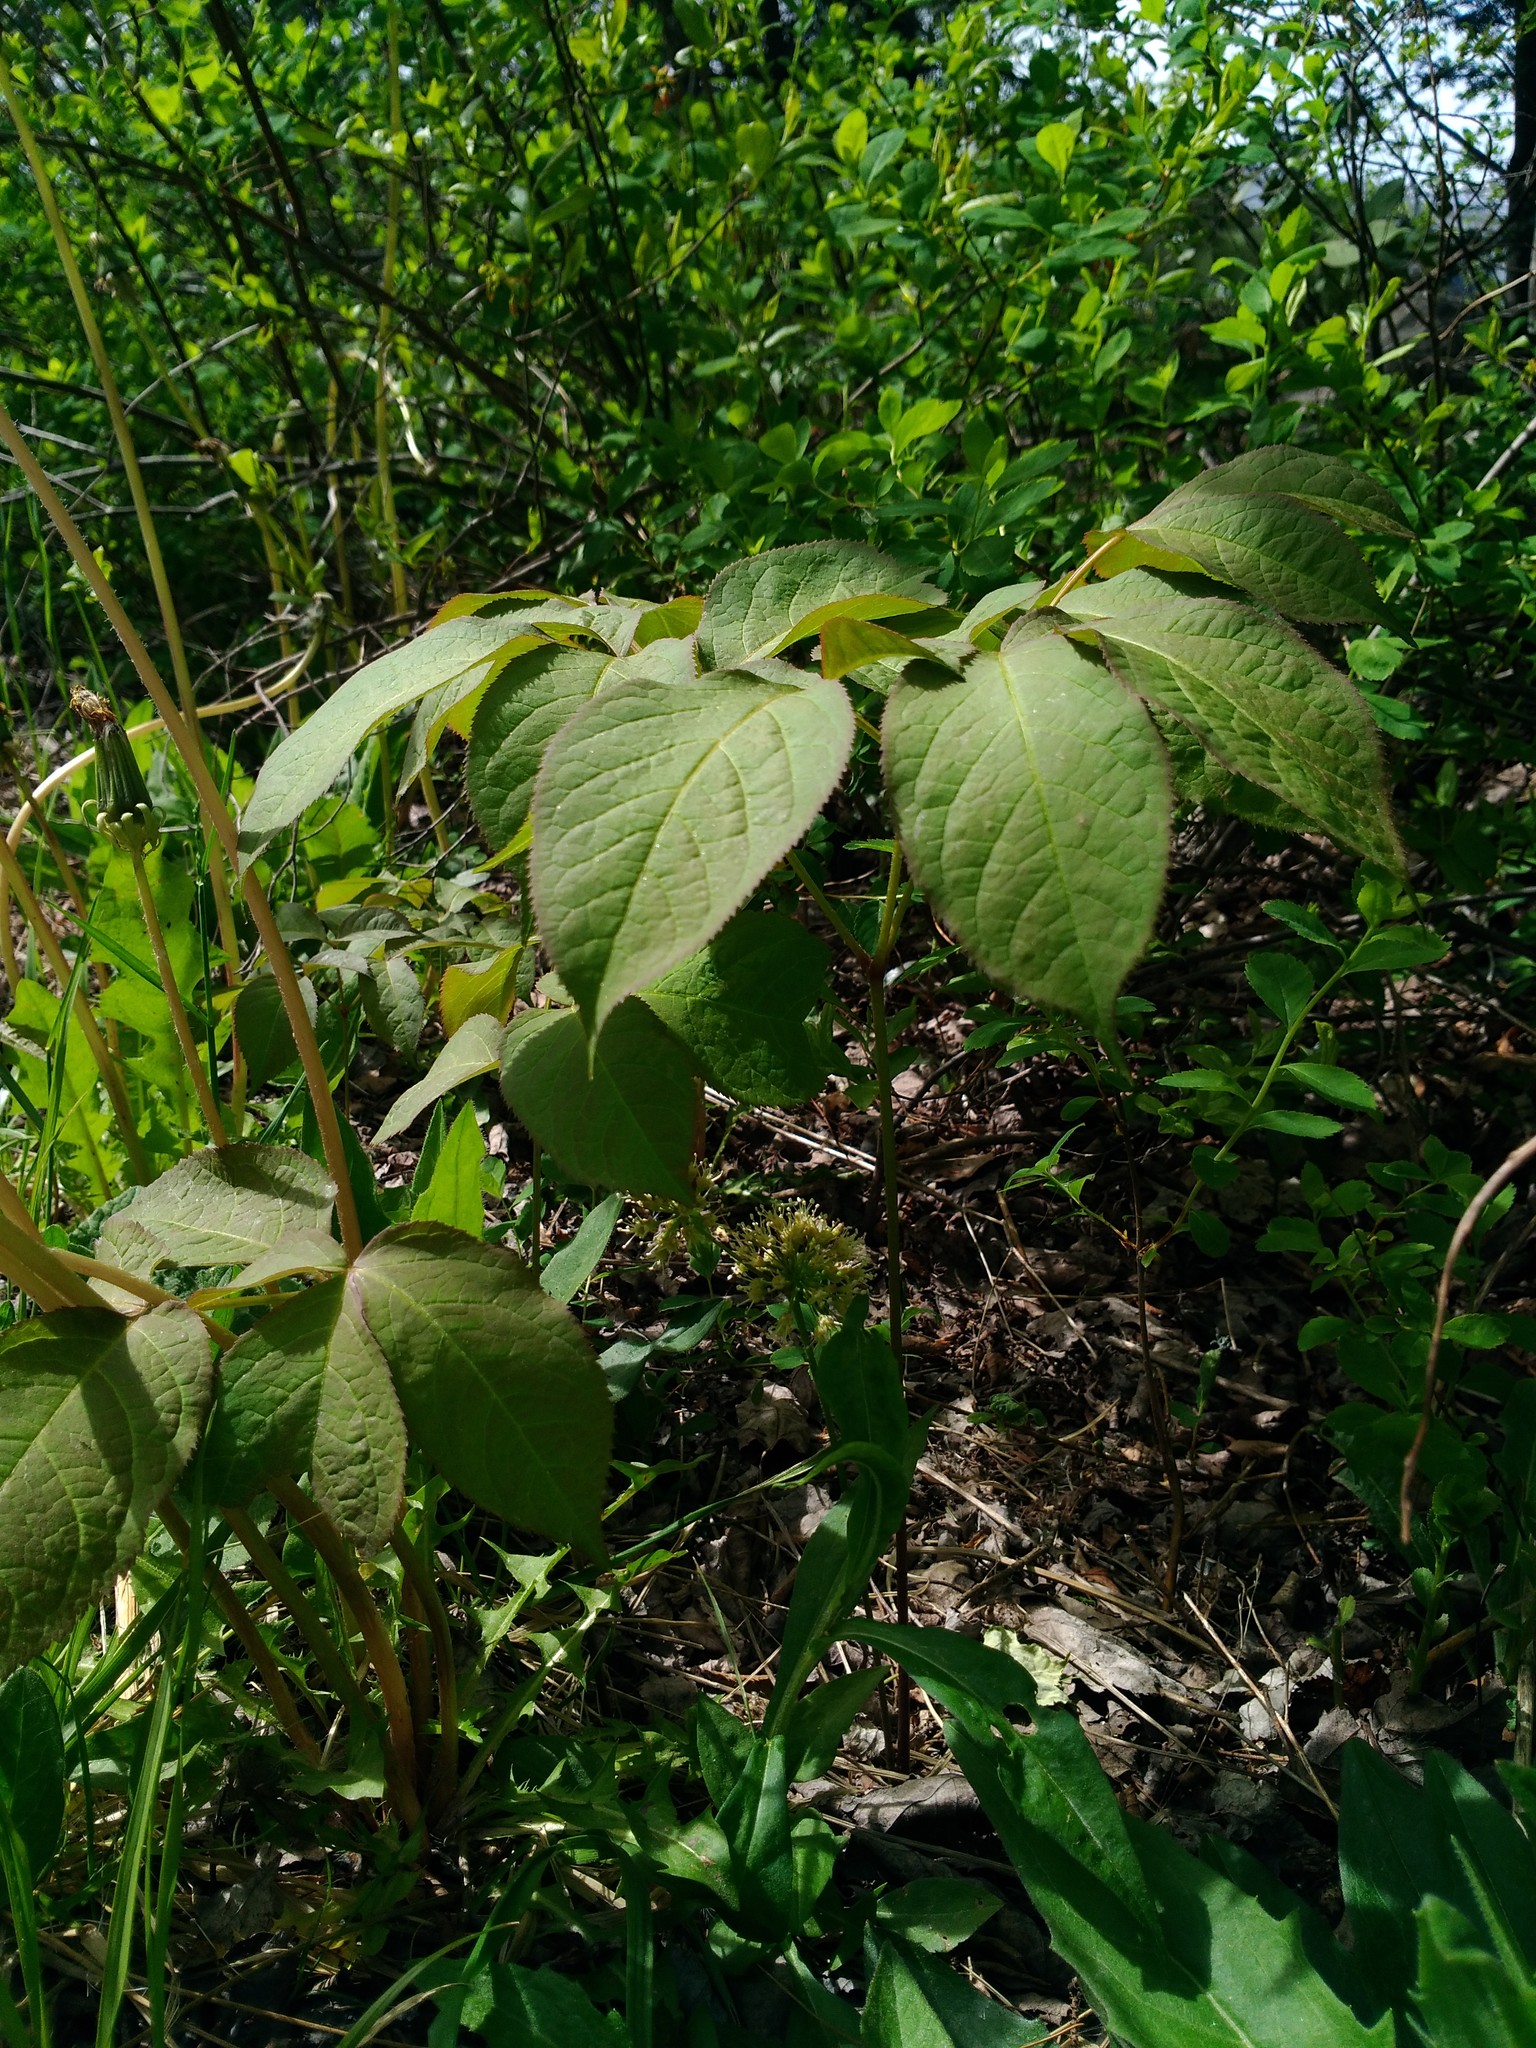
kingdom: Plantae
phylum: Tracheophyta
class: Magnoliopsida
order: Apiales
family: Araliaceae
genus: Aralia
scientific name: Aralia nudicaulis
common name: Wild sarsaparilla
